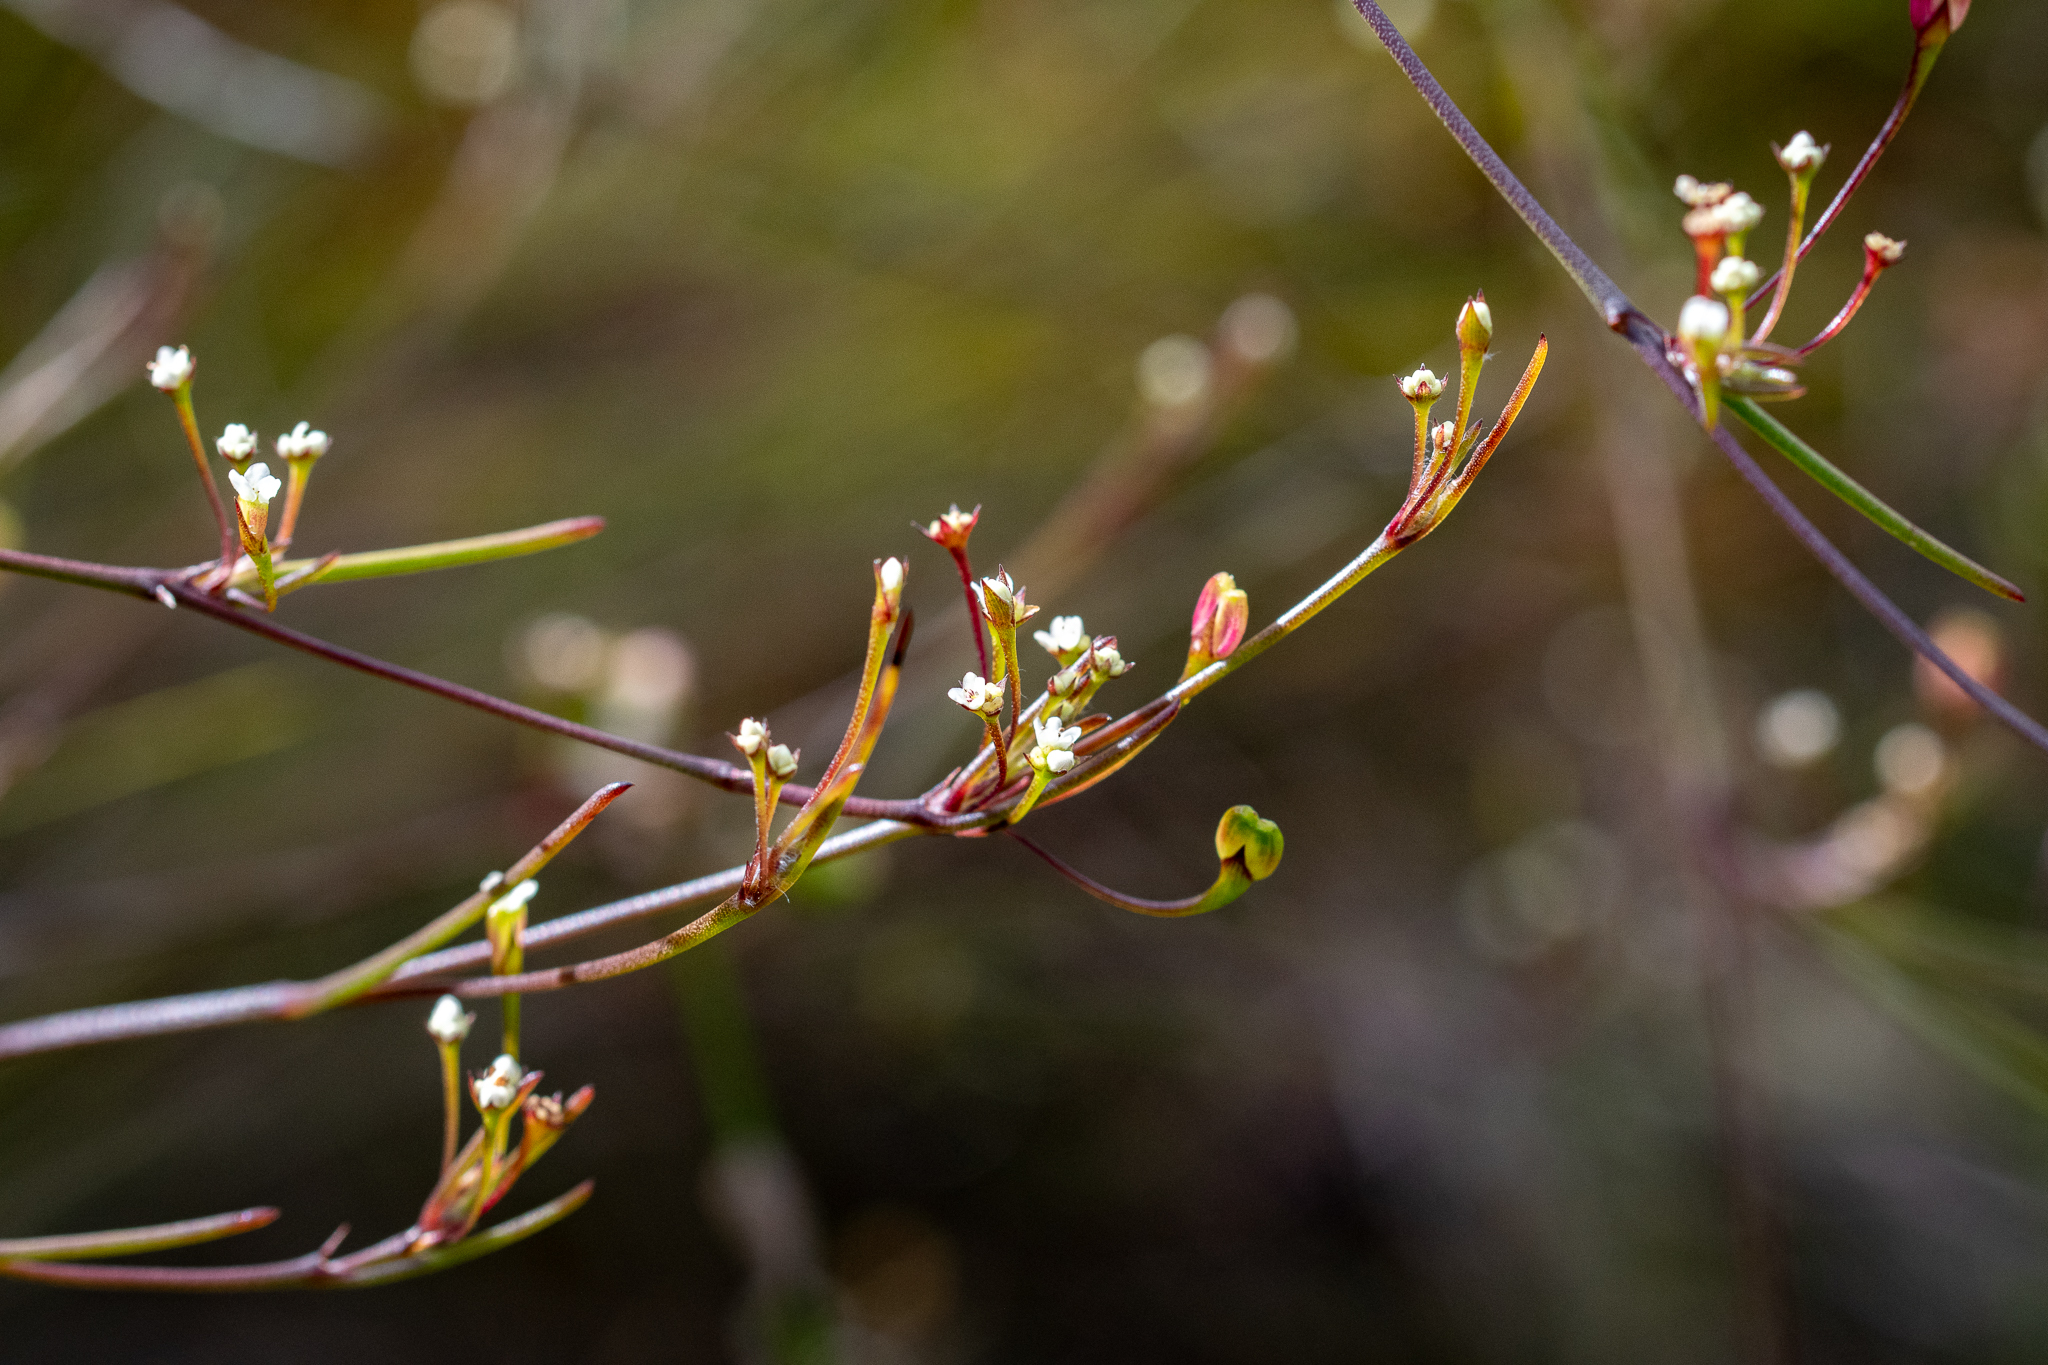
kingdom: Plantae
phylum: Tracheophyta
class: Magnoliopsida
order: Apiales
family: Apiaceae
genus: Centella
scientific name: Centella macrocarpa
